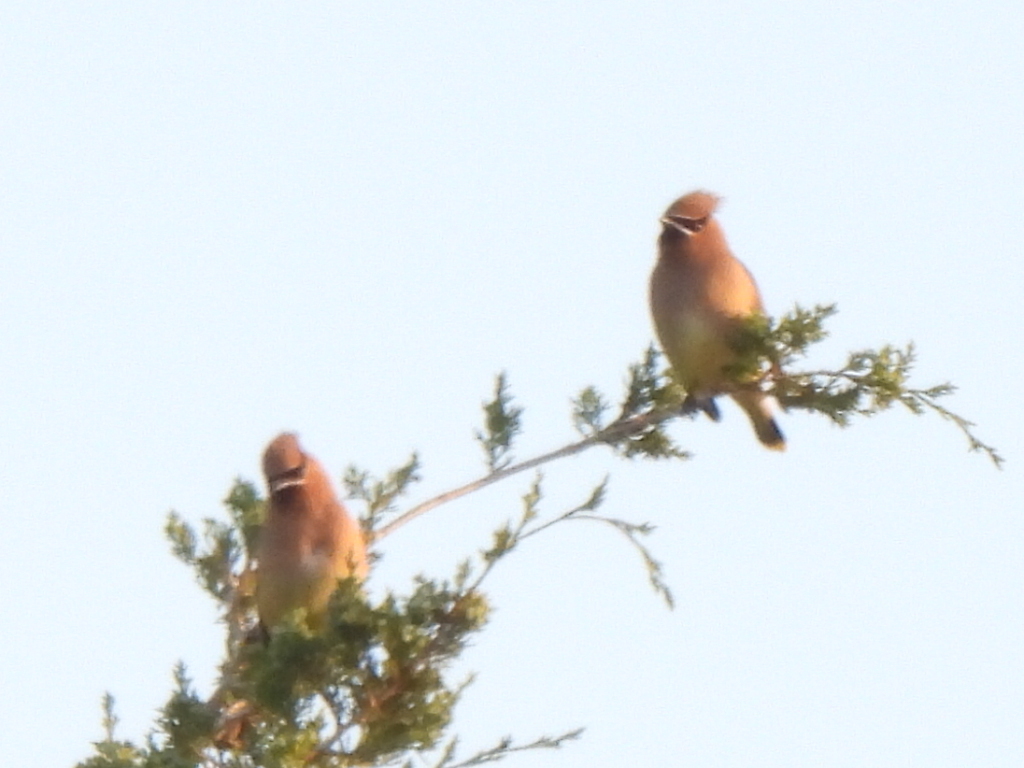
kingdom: Animalia
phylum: Chordata
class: Aves
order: Passeriformes
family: Bombycillidae
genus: Bombycilla
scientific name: Bombycilla cedrorum
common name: Cedar waxwing
